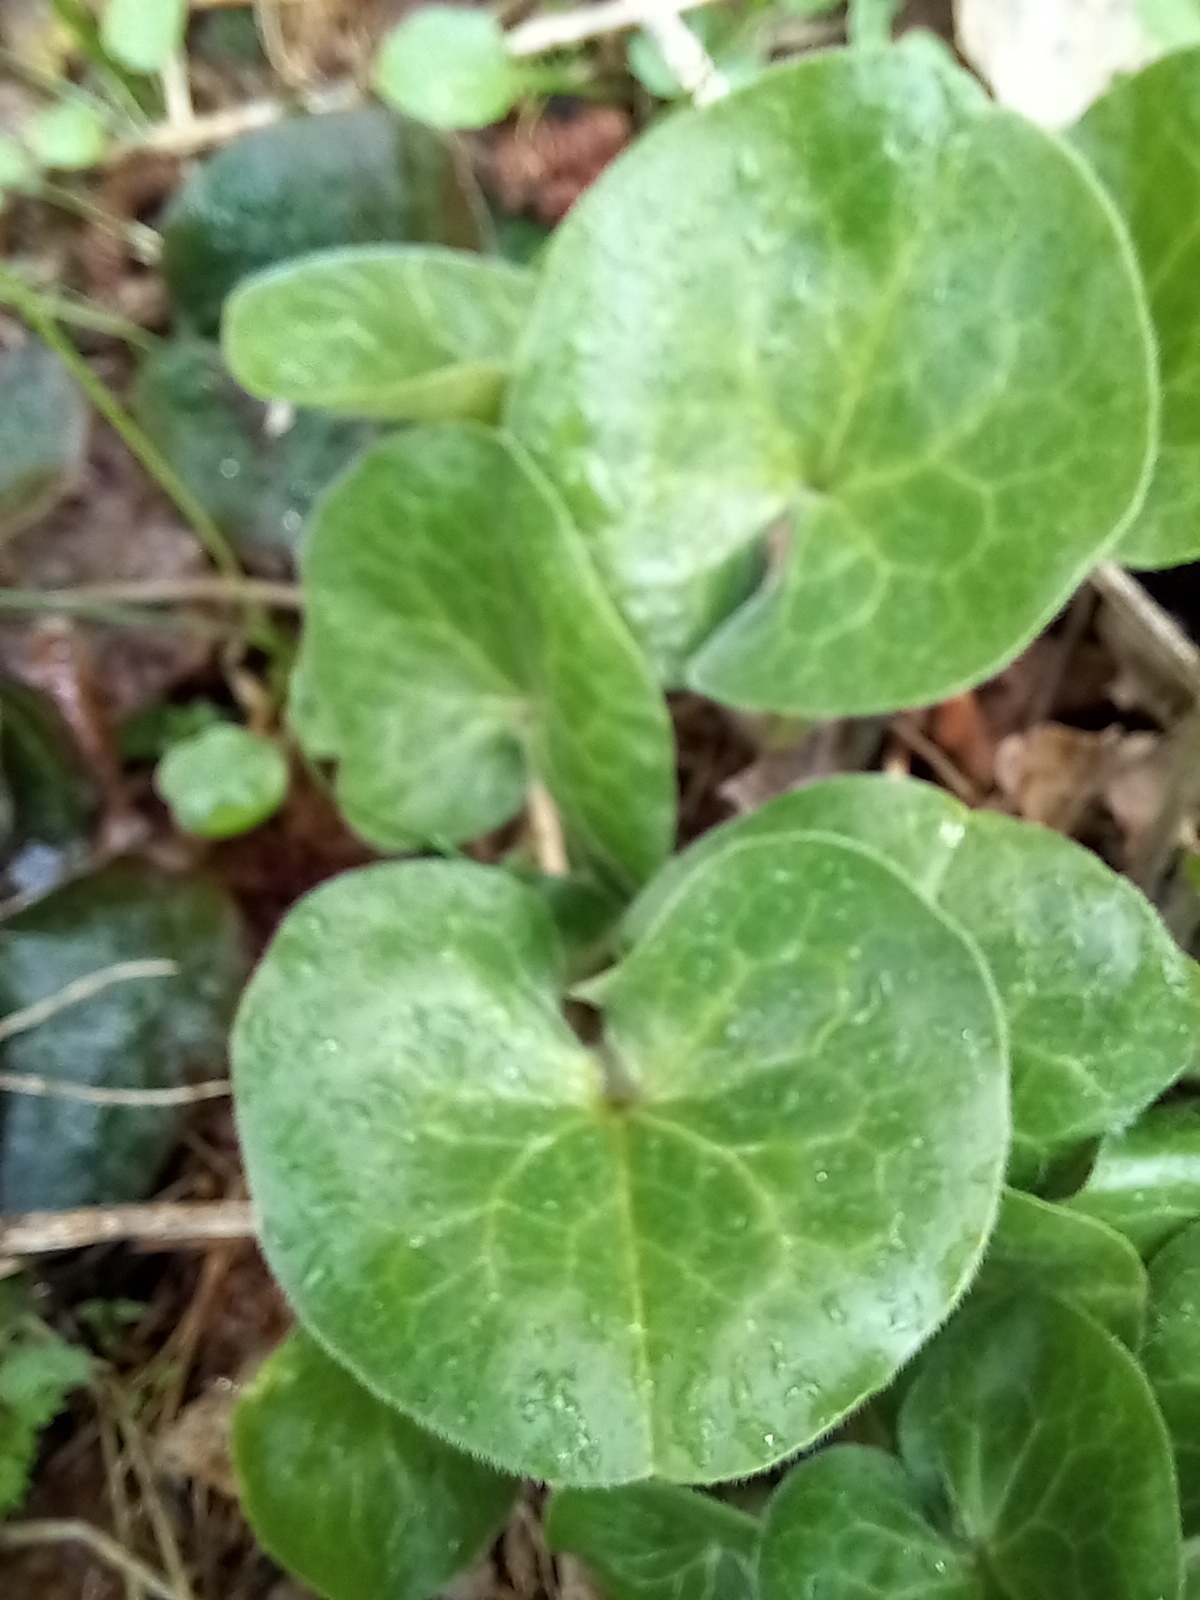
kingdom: Plantae
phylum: Tracheophyta
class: Magnoliopsida
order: Piperales
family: Aristolochiaceae
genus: Asarum
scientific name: Asarum europaeum
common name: Asarabacca
